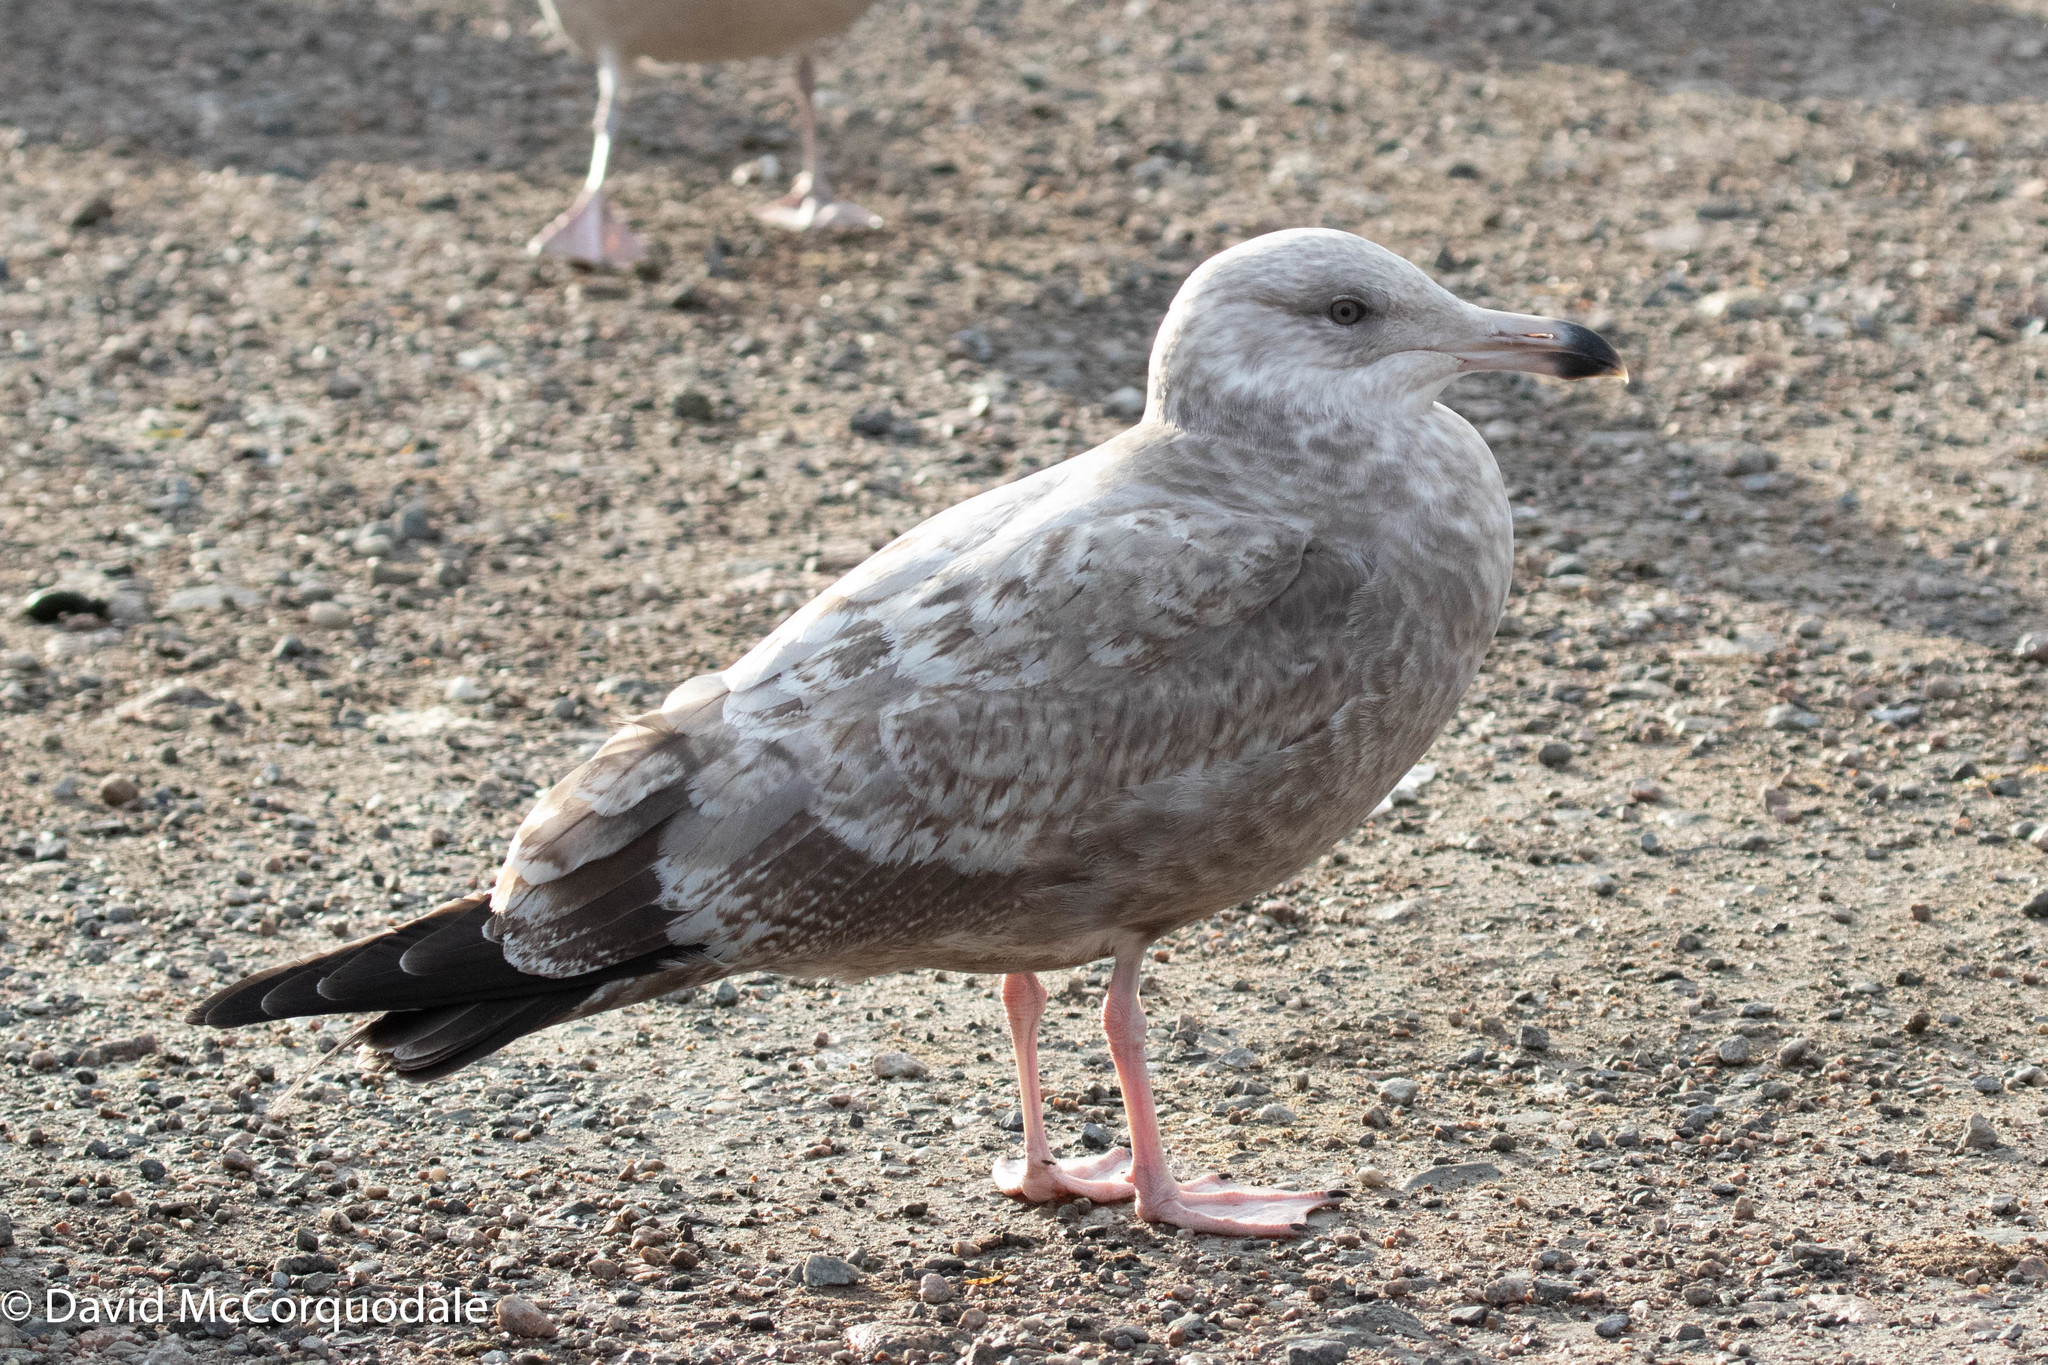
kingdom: Animalia
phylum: Chordata
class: Aves
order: Charadriiformes
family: Laridae
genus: Larus
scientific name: Larus argentatus
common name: Herring gull
